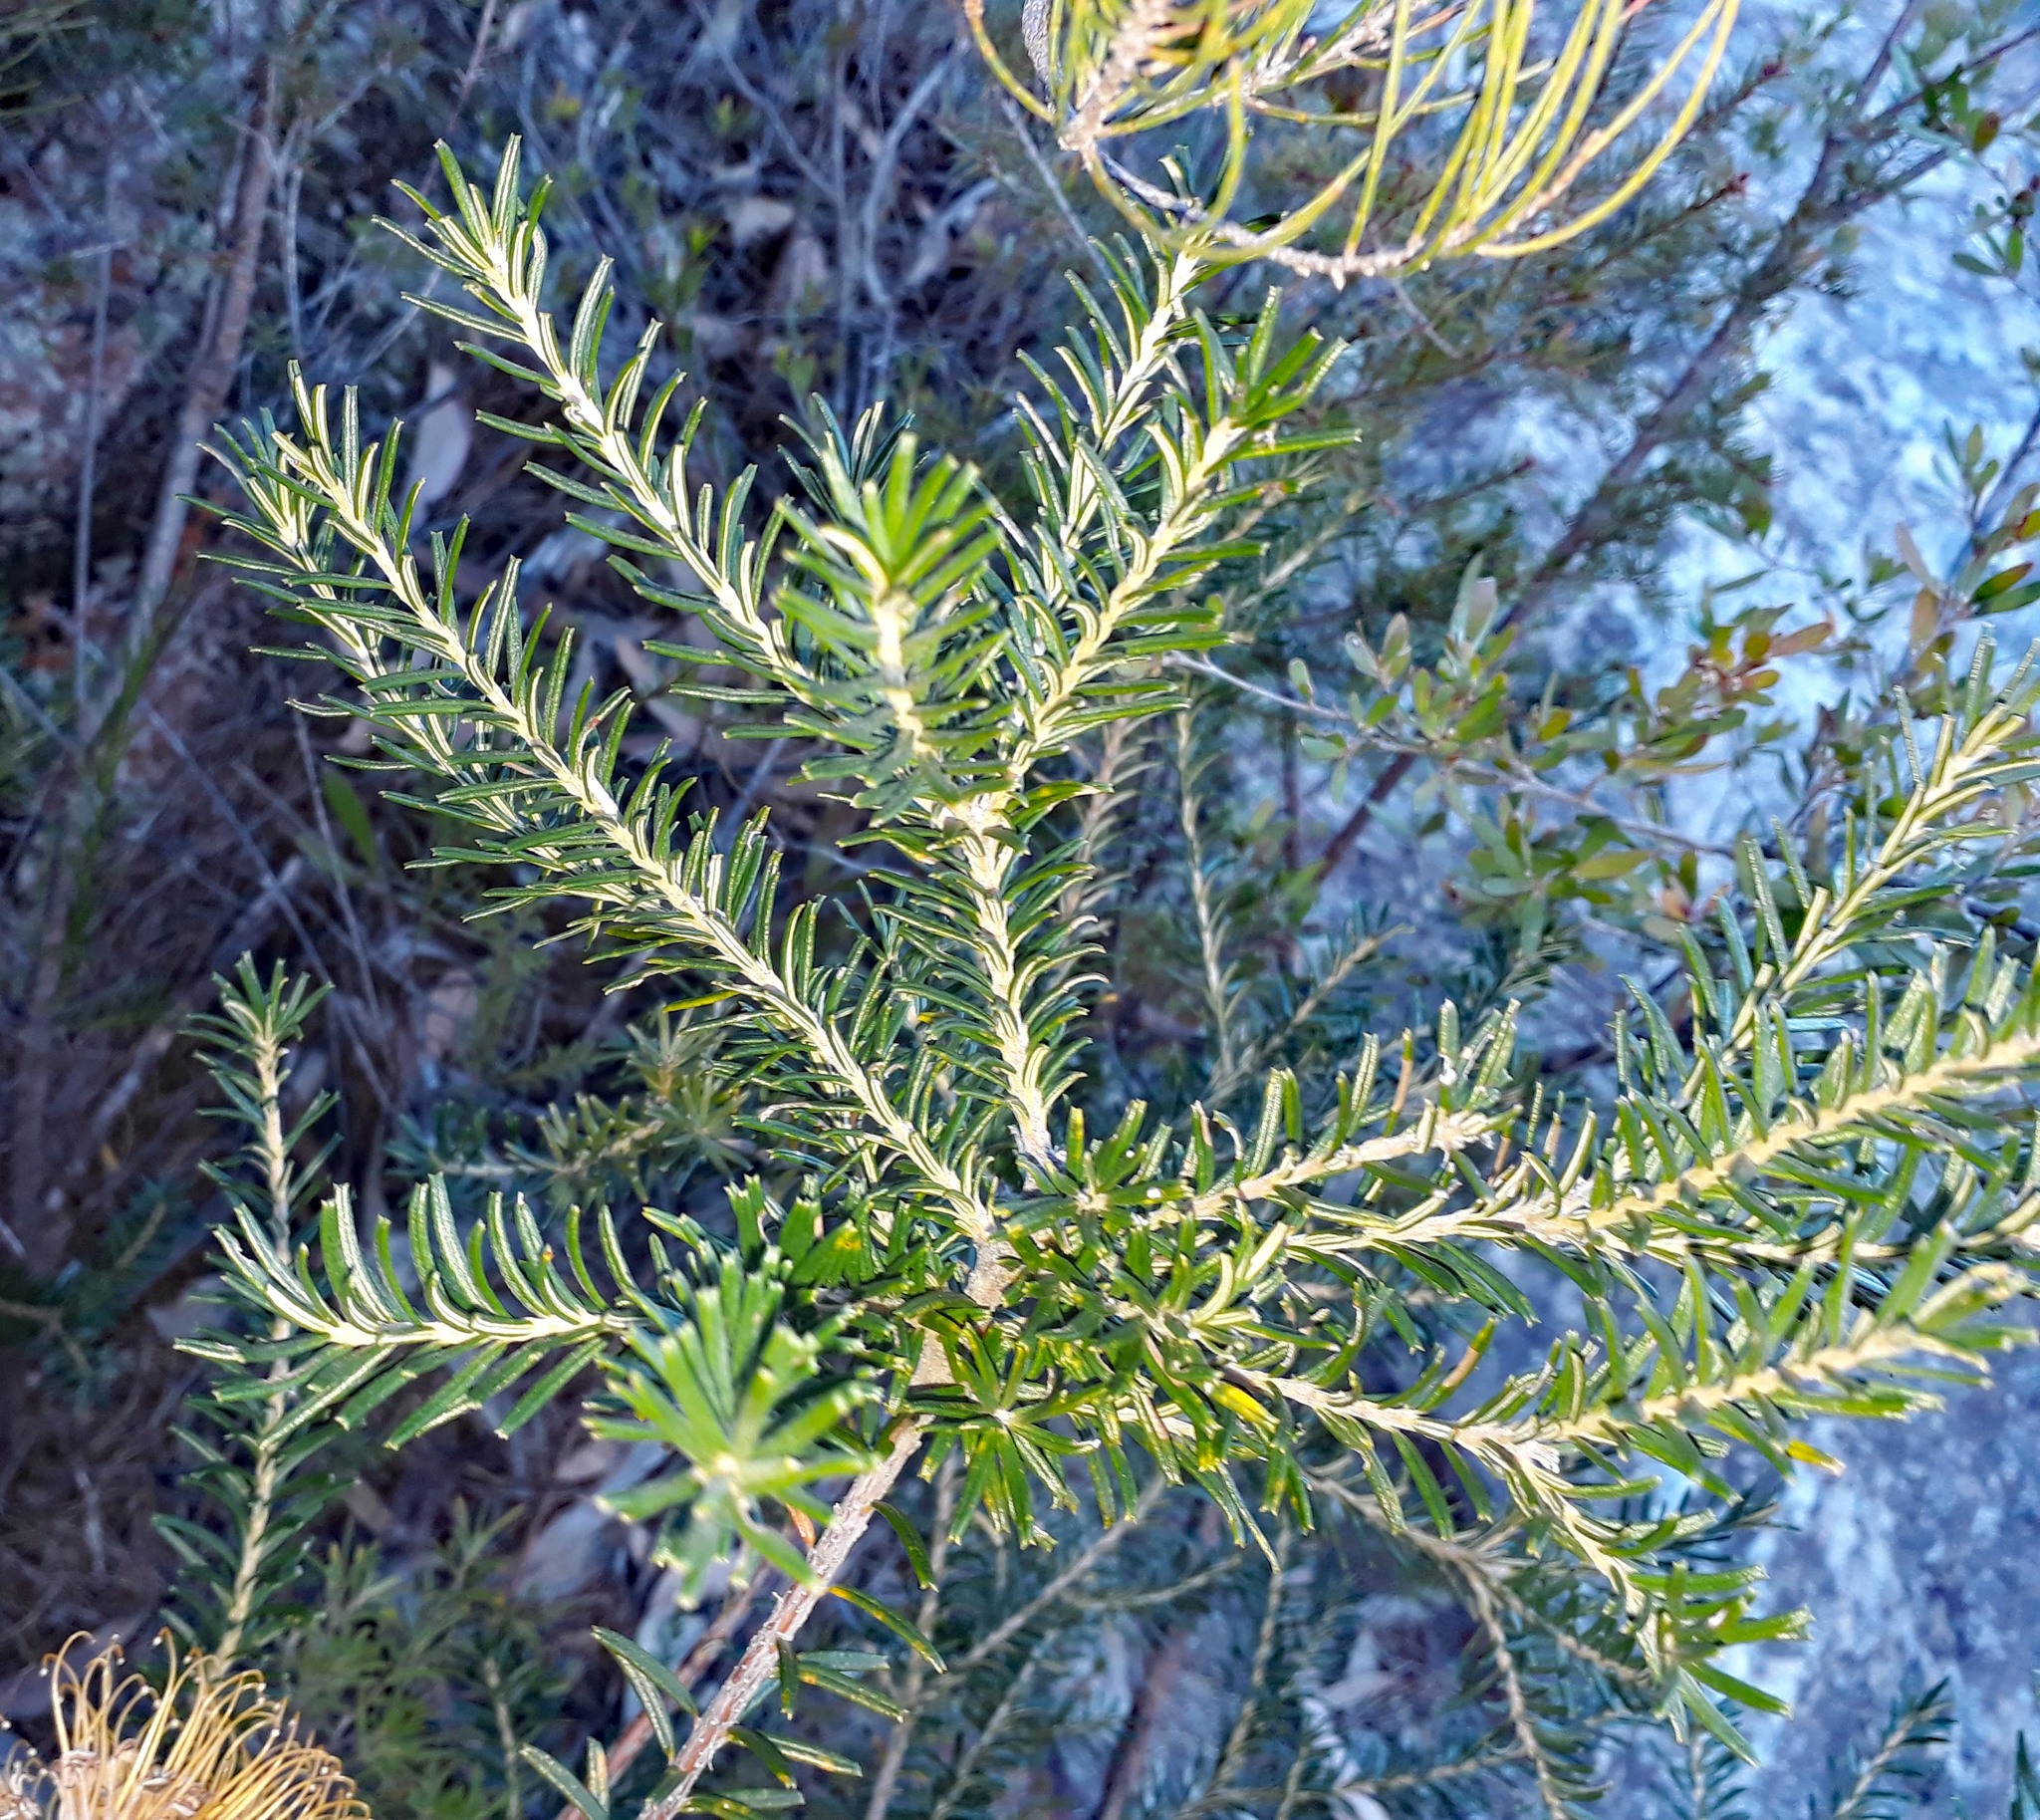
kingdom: Plantae
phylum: Tracheophyta
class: Magnoliopsida
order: Proteales
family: Proteaceae
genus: Banksia
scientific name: Banksia ericifolia
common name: Heath-leaf banksia
